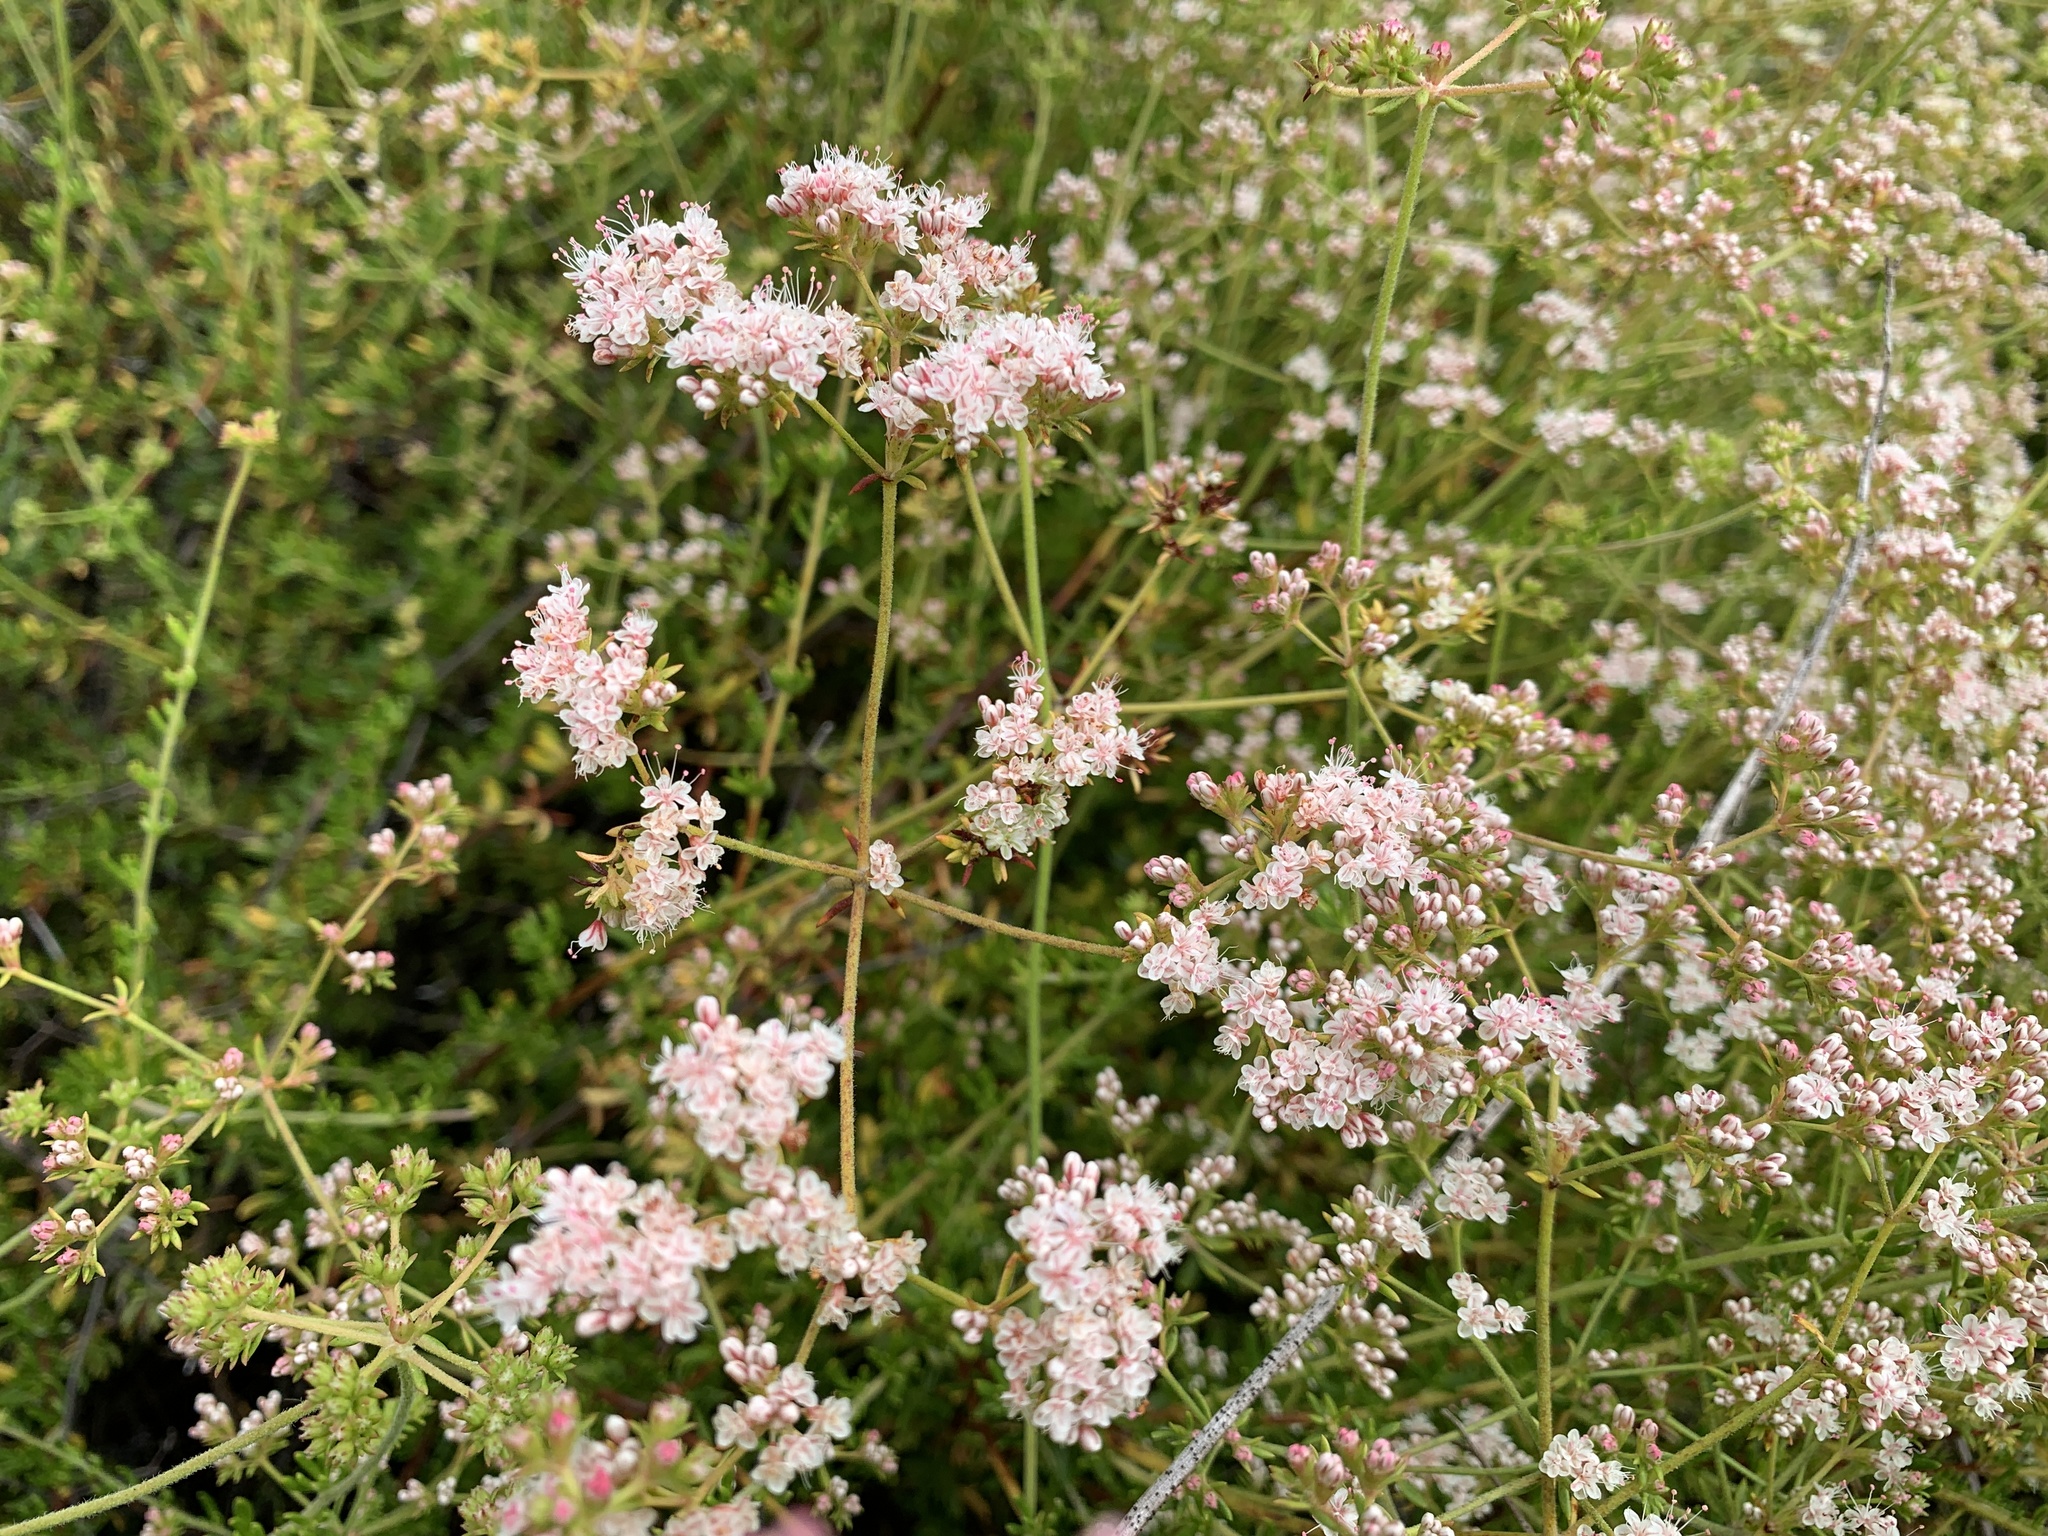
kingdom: Plantae
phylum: Tracheophyta
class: Magnoliopsida
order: Caryophyllales
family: Polygonaceae
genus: Eriogonum
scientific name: Eriogonum fasciculatum
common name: California wild buckwheat
